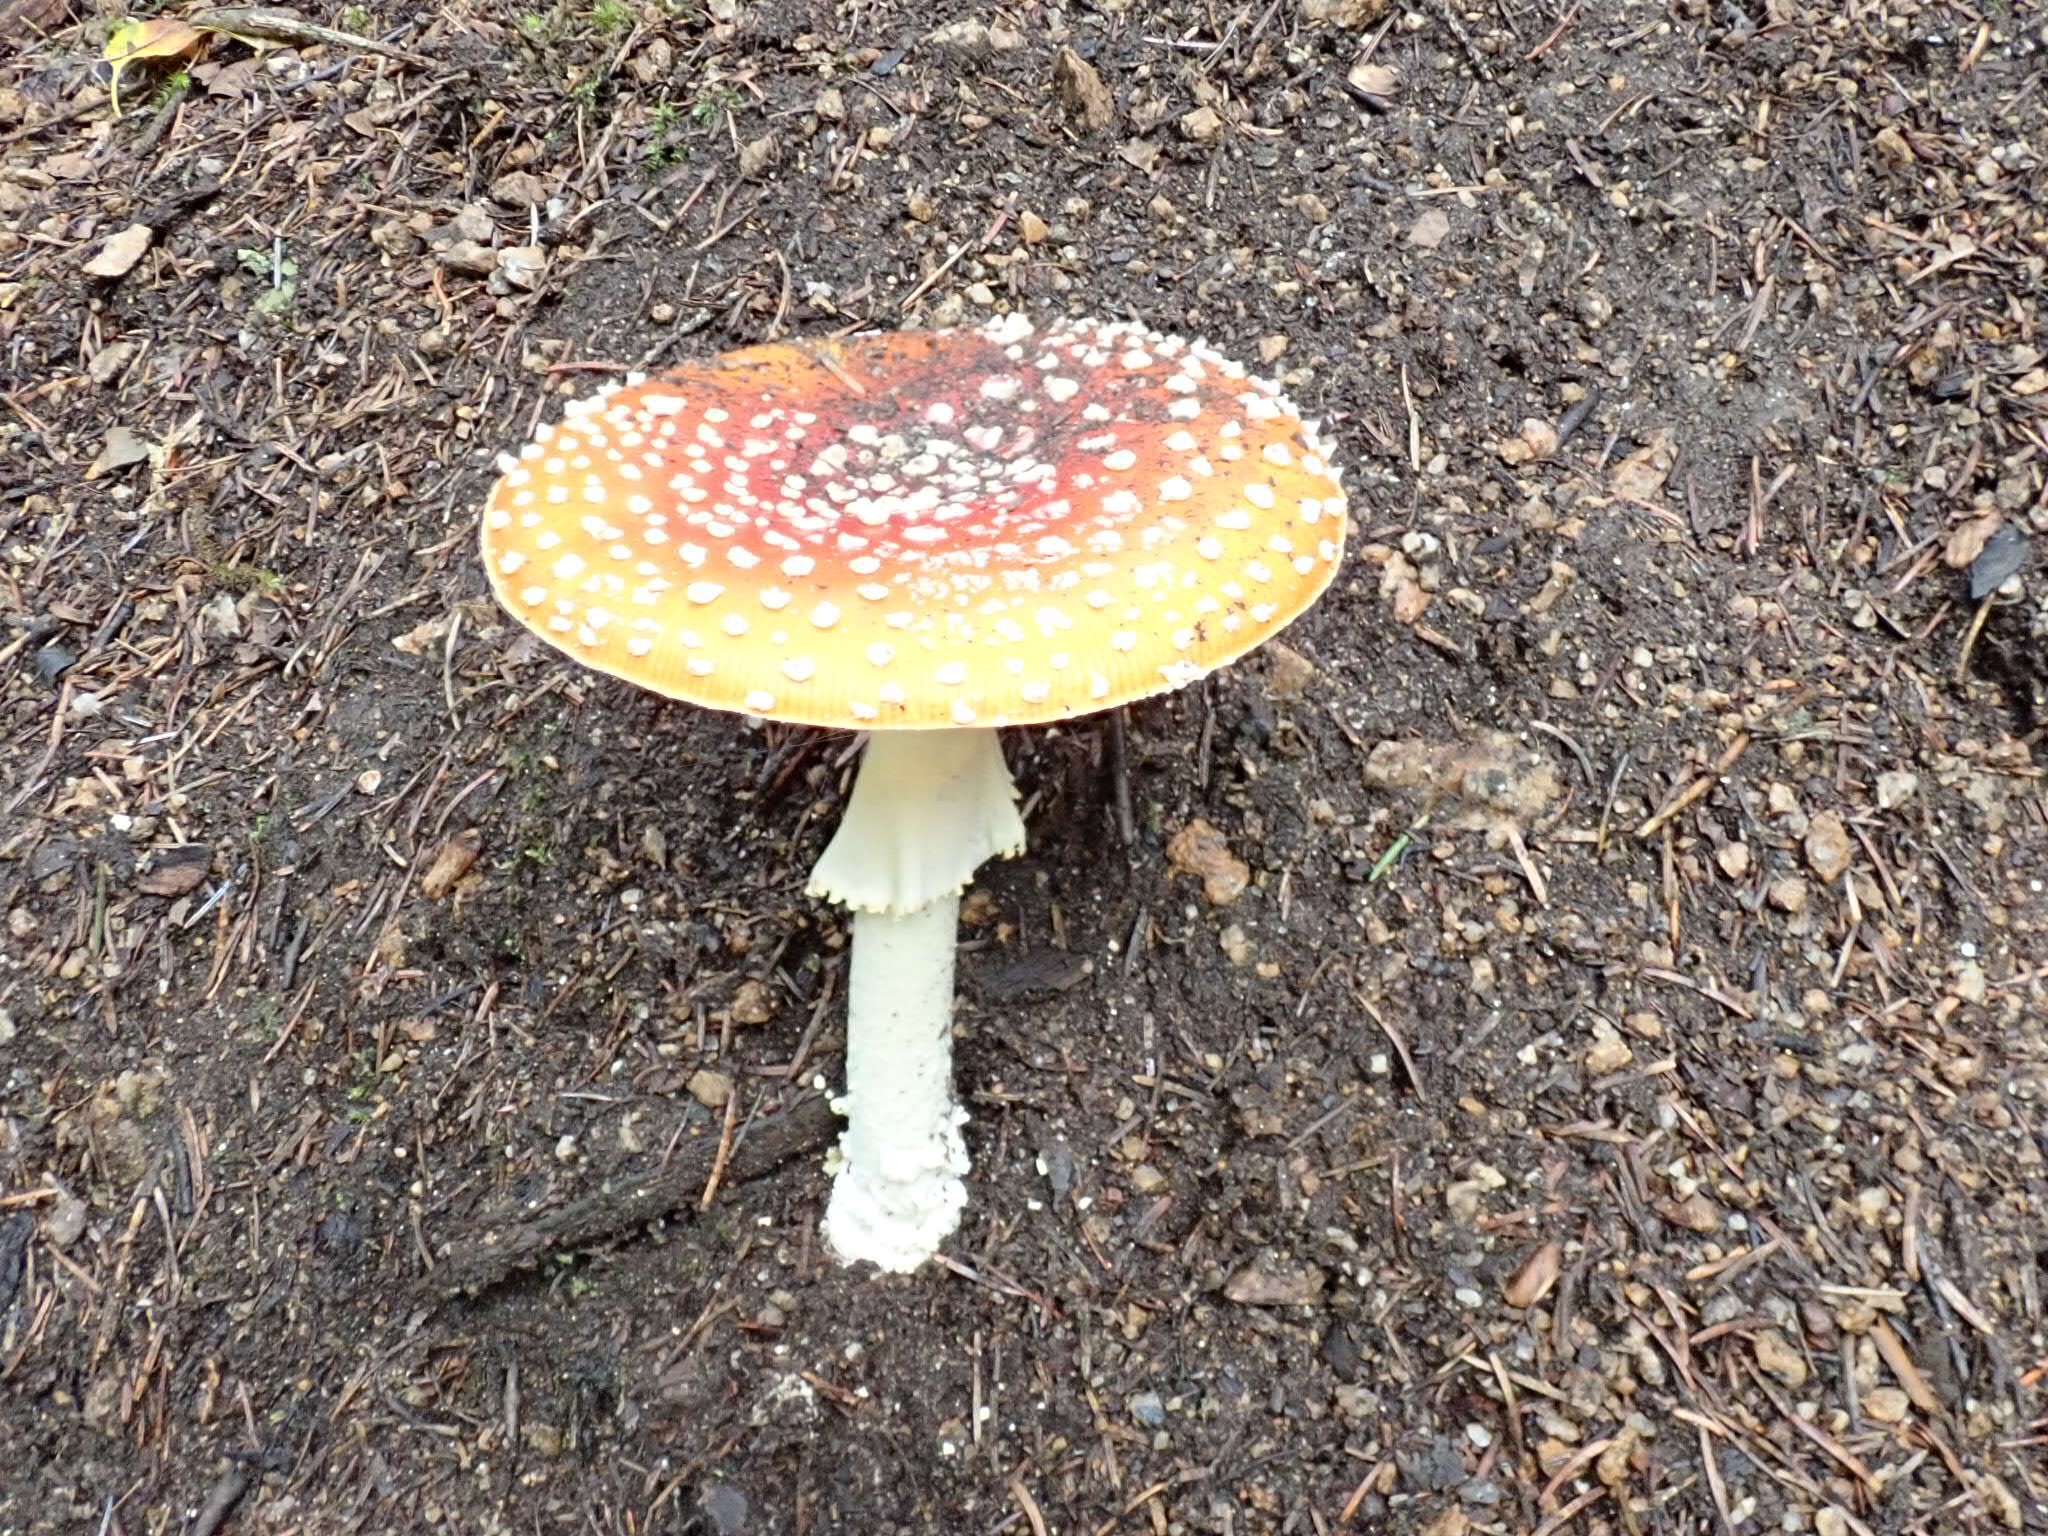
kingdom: Fungi
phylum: Basidiomycota
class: Agaricomycetes
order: Agaricales
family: Amanitaceae
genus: Amanita
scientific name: Amanita muscaria
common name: Fly agaric
